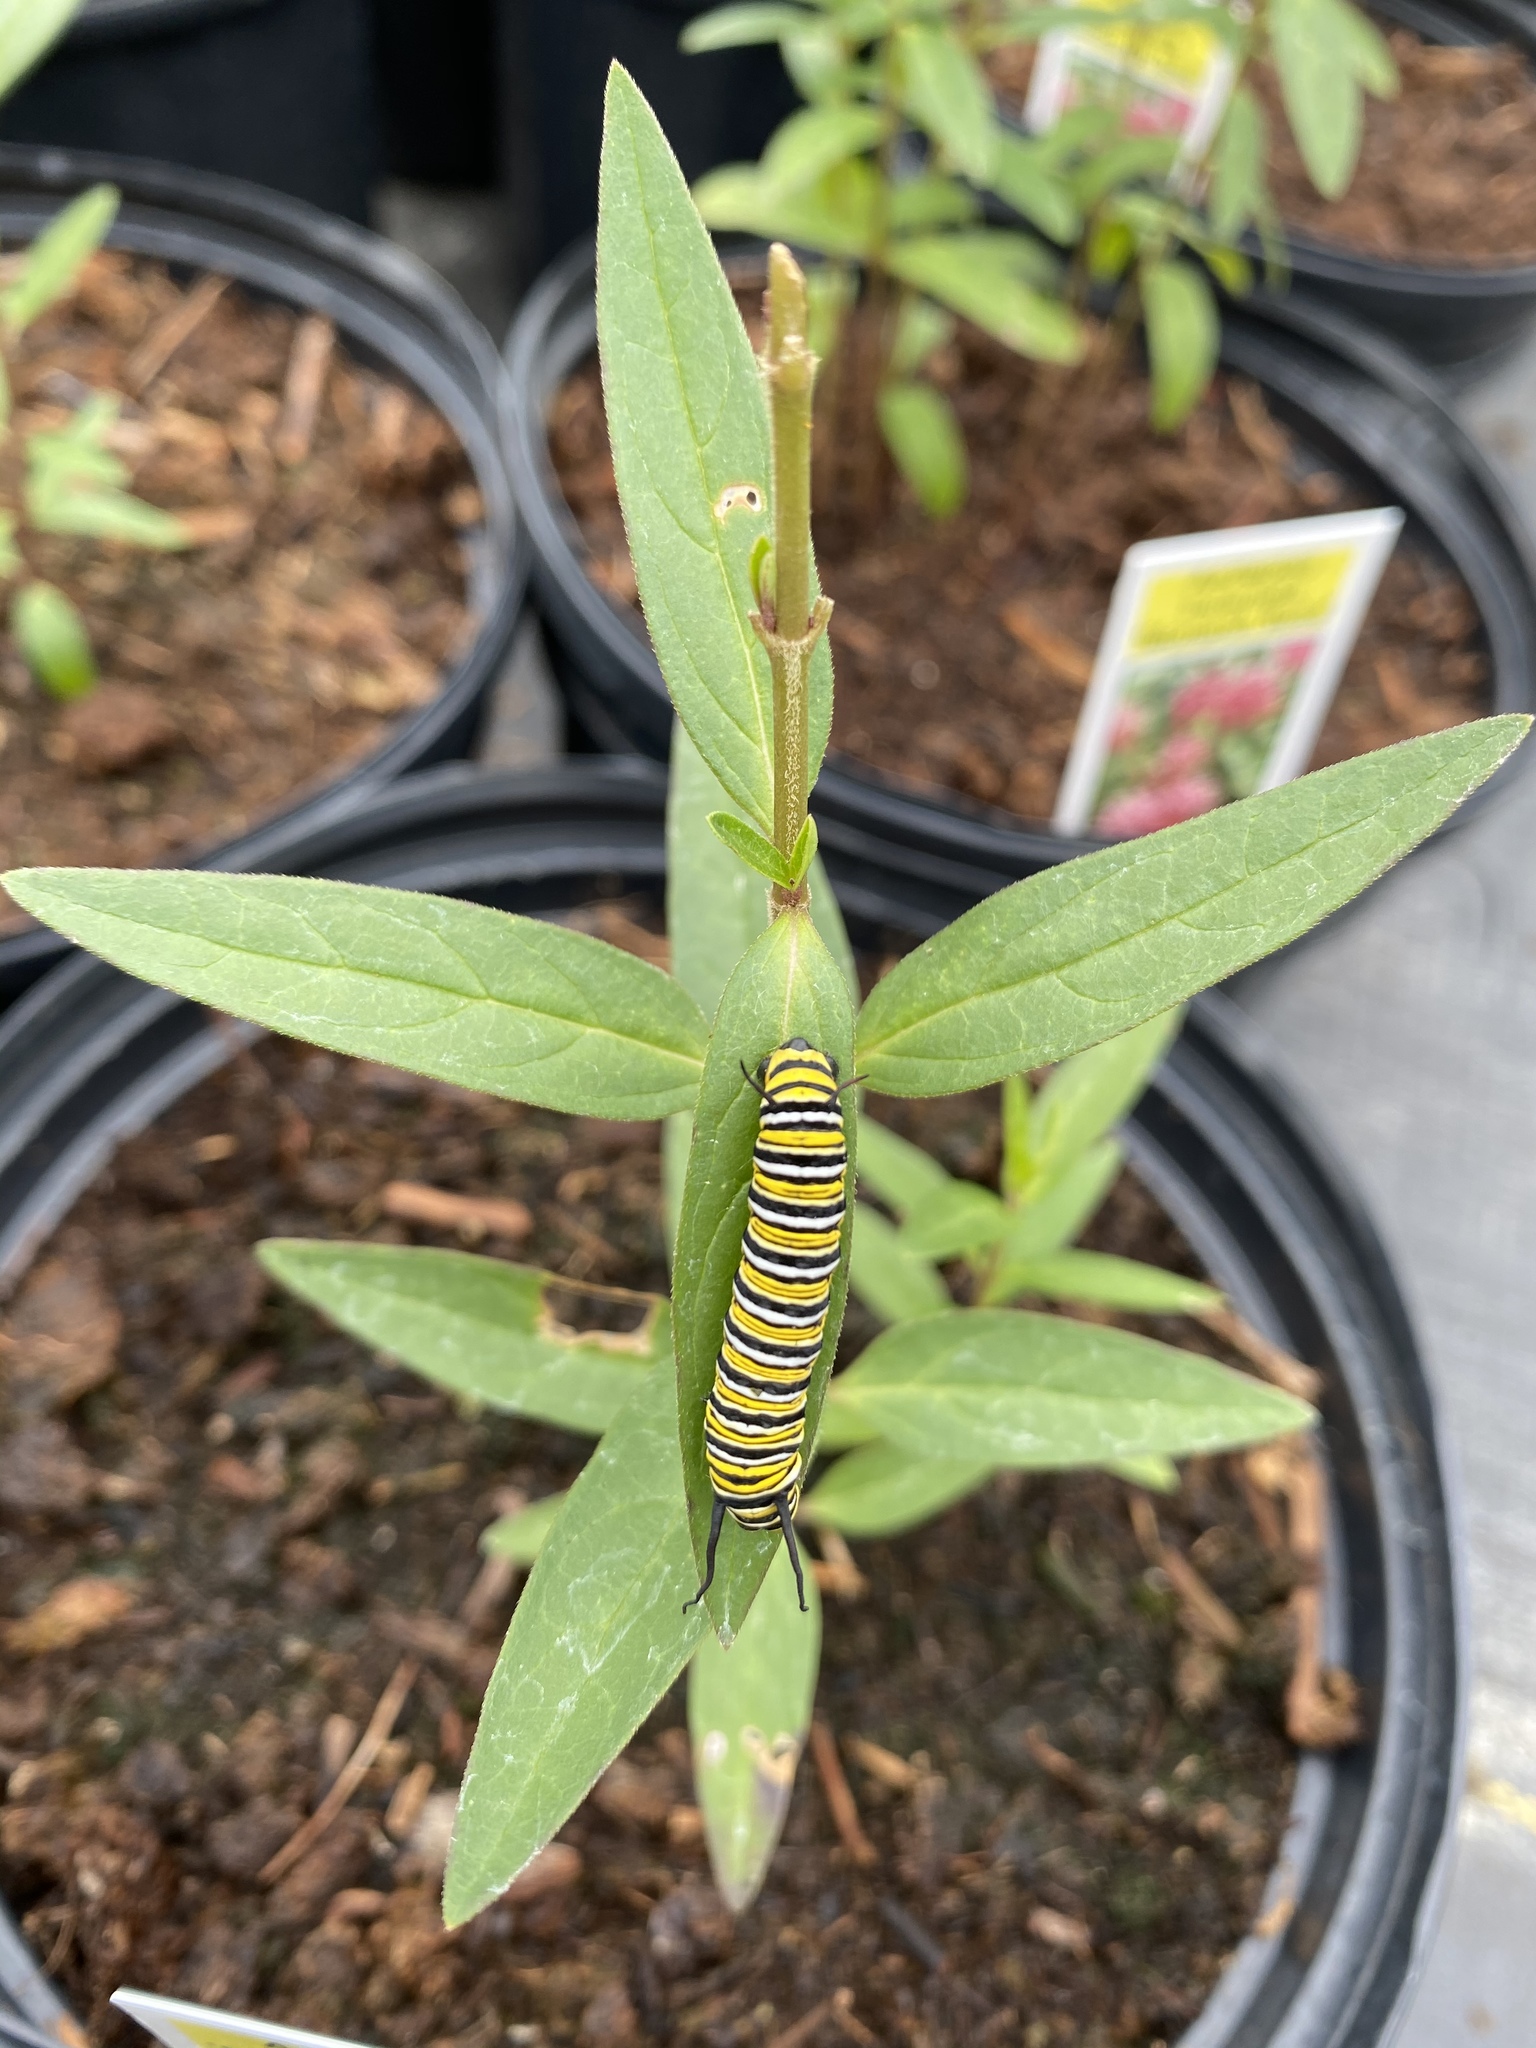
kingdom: Animalia
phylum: Arthropoda
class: Insecta
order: Lepidoptera
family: Nymphalidae
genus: Danaus
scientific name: Danaus plexippus
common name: Monarch
